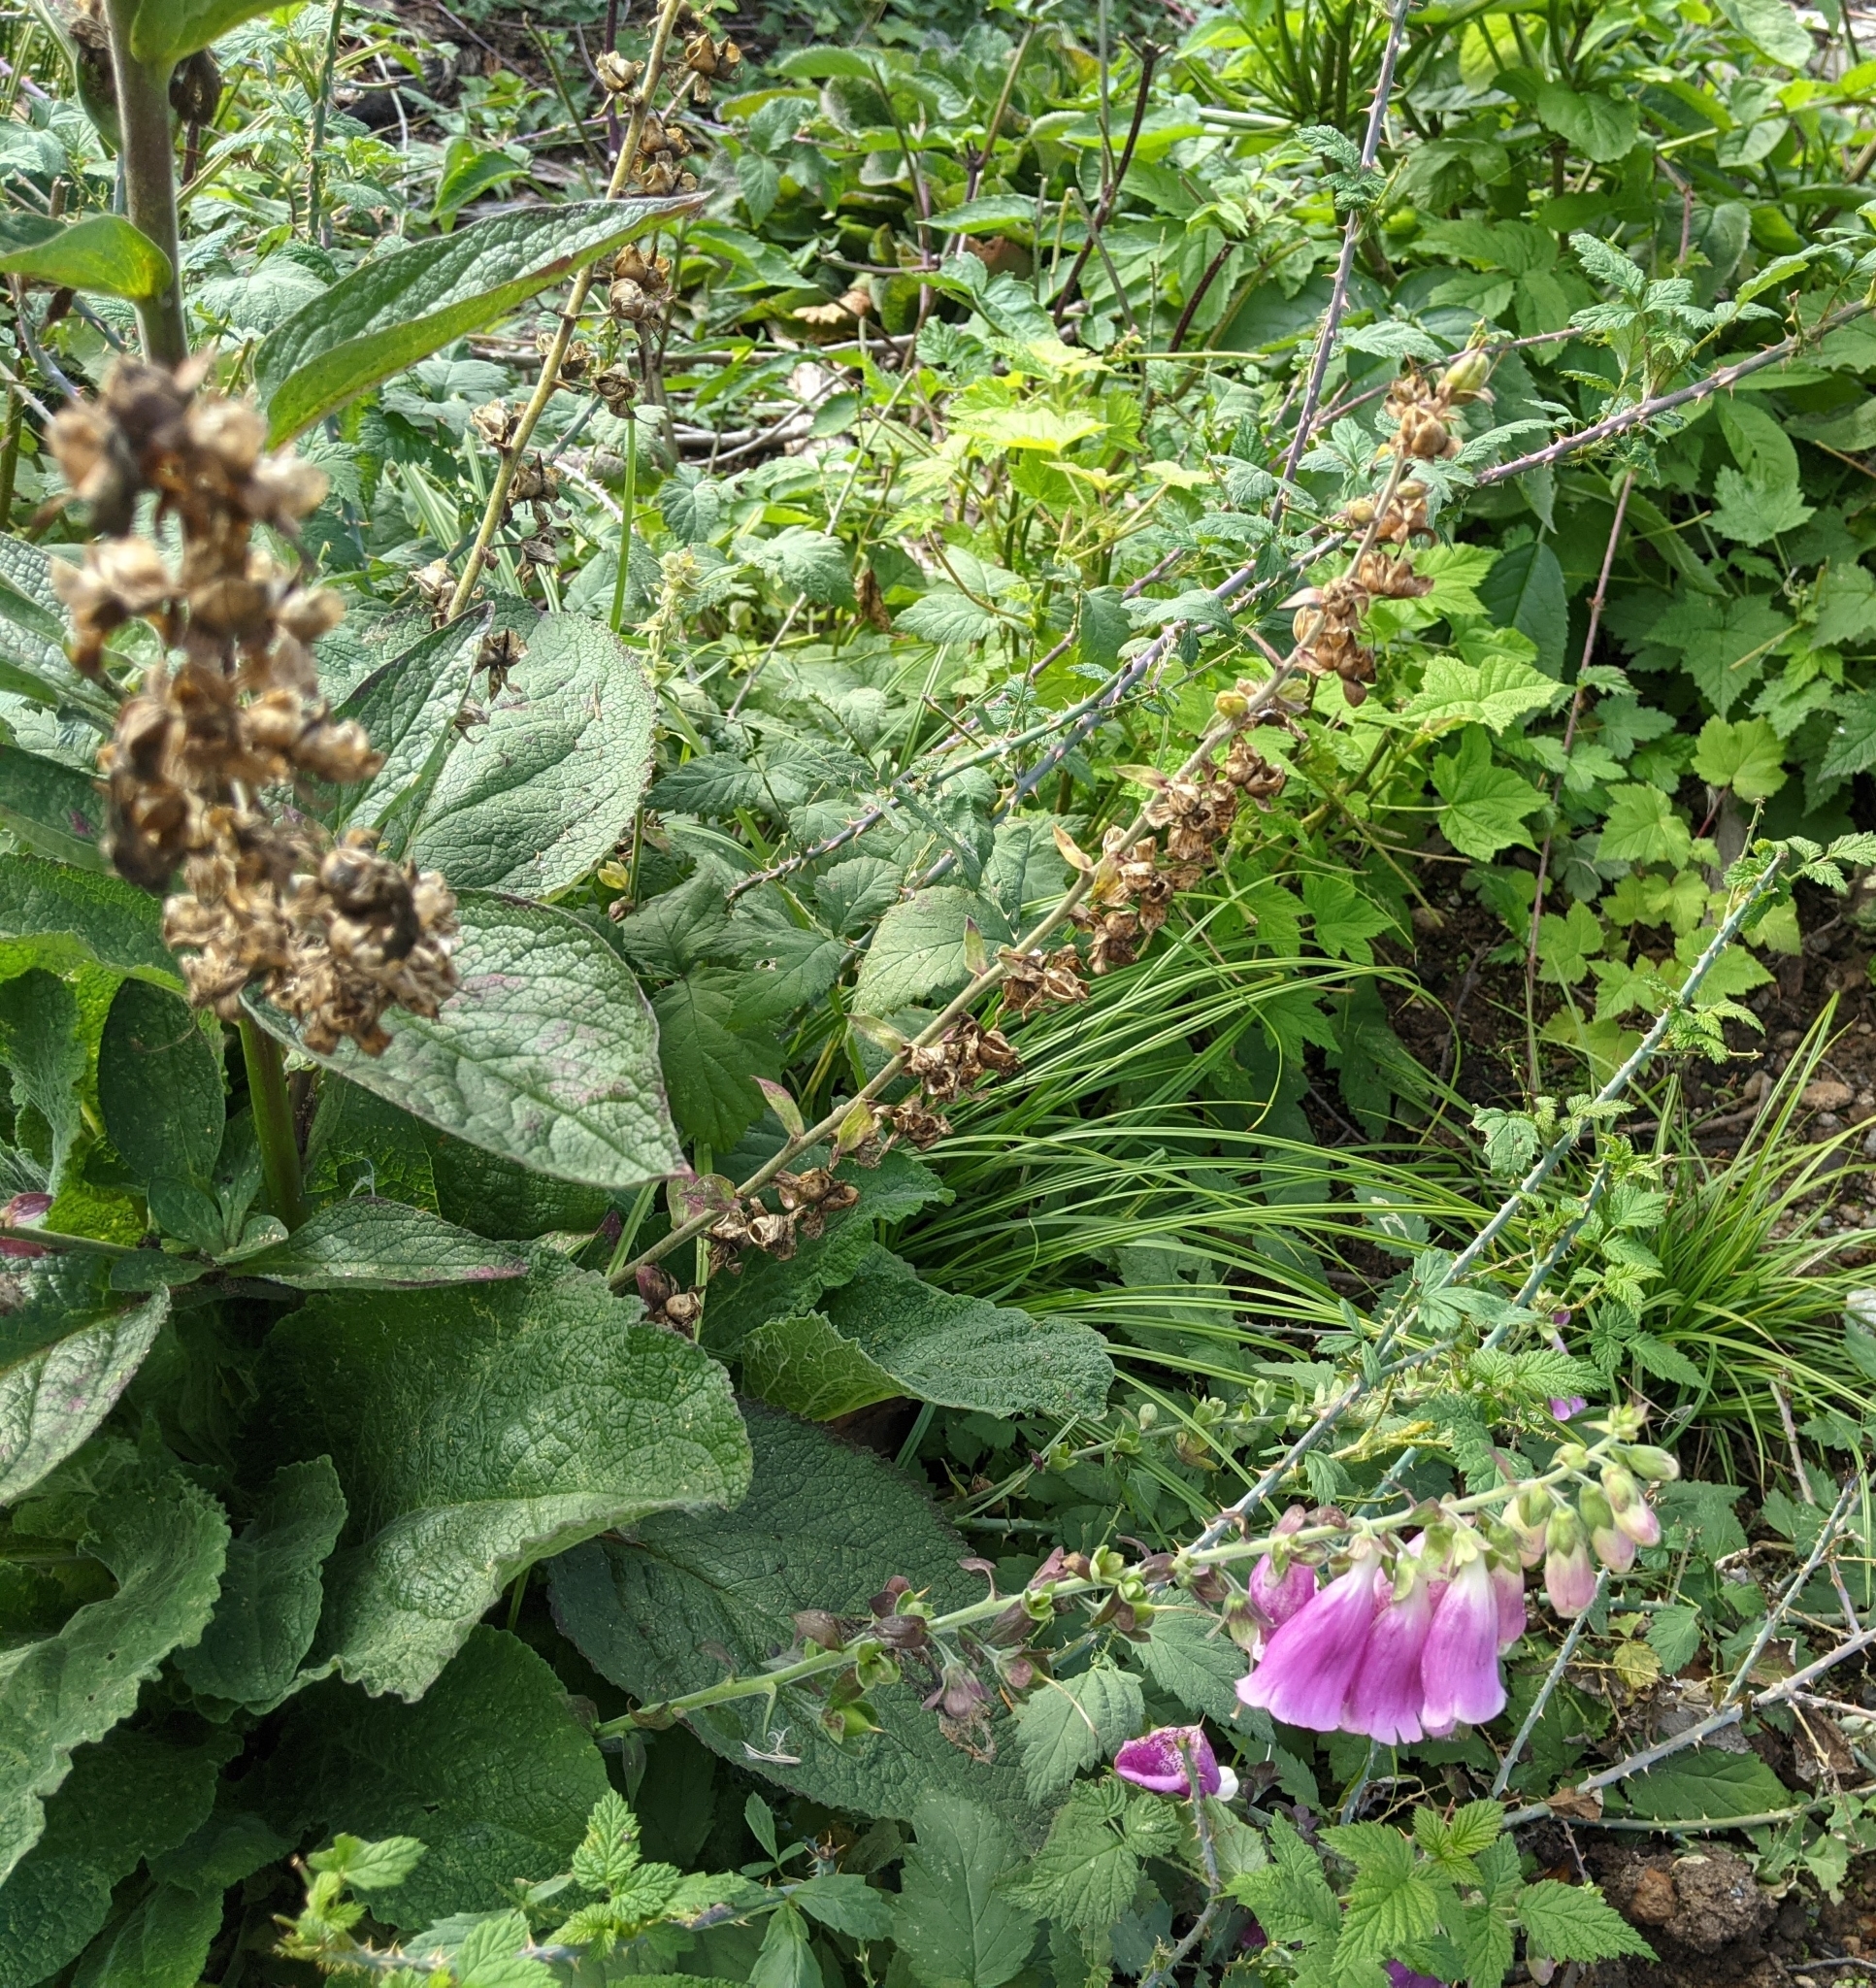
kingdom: Plantae
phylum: Tracheophyta
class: Magnoliopsida
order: Lamiales
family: Plantaginaceae
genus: Digitalis
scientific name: Digitalis purpurea
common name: Foxglove
